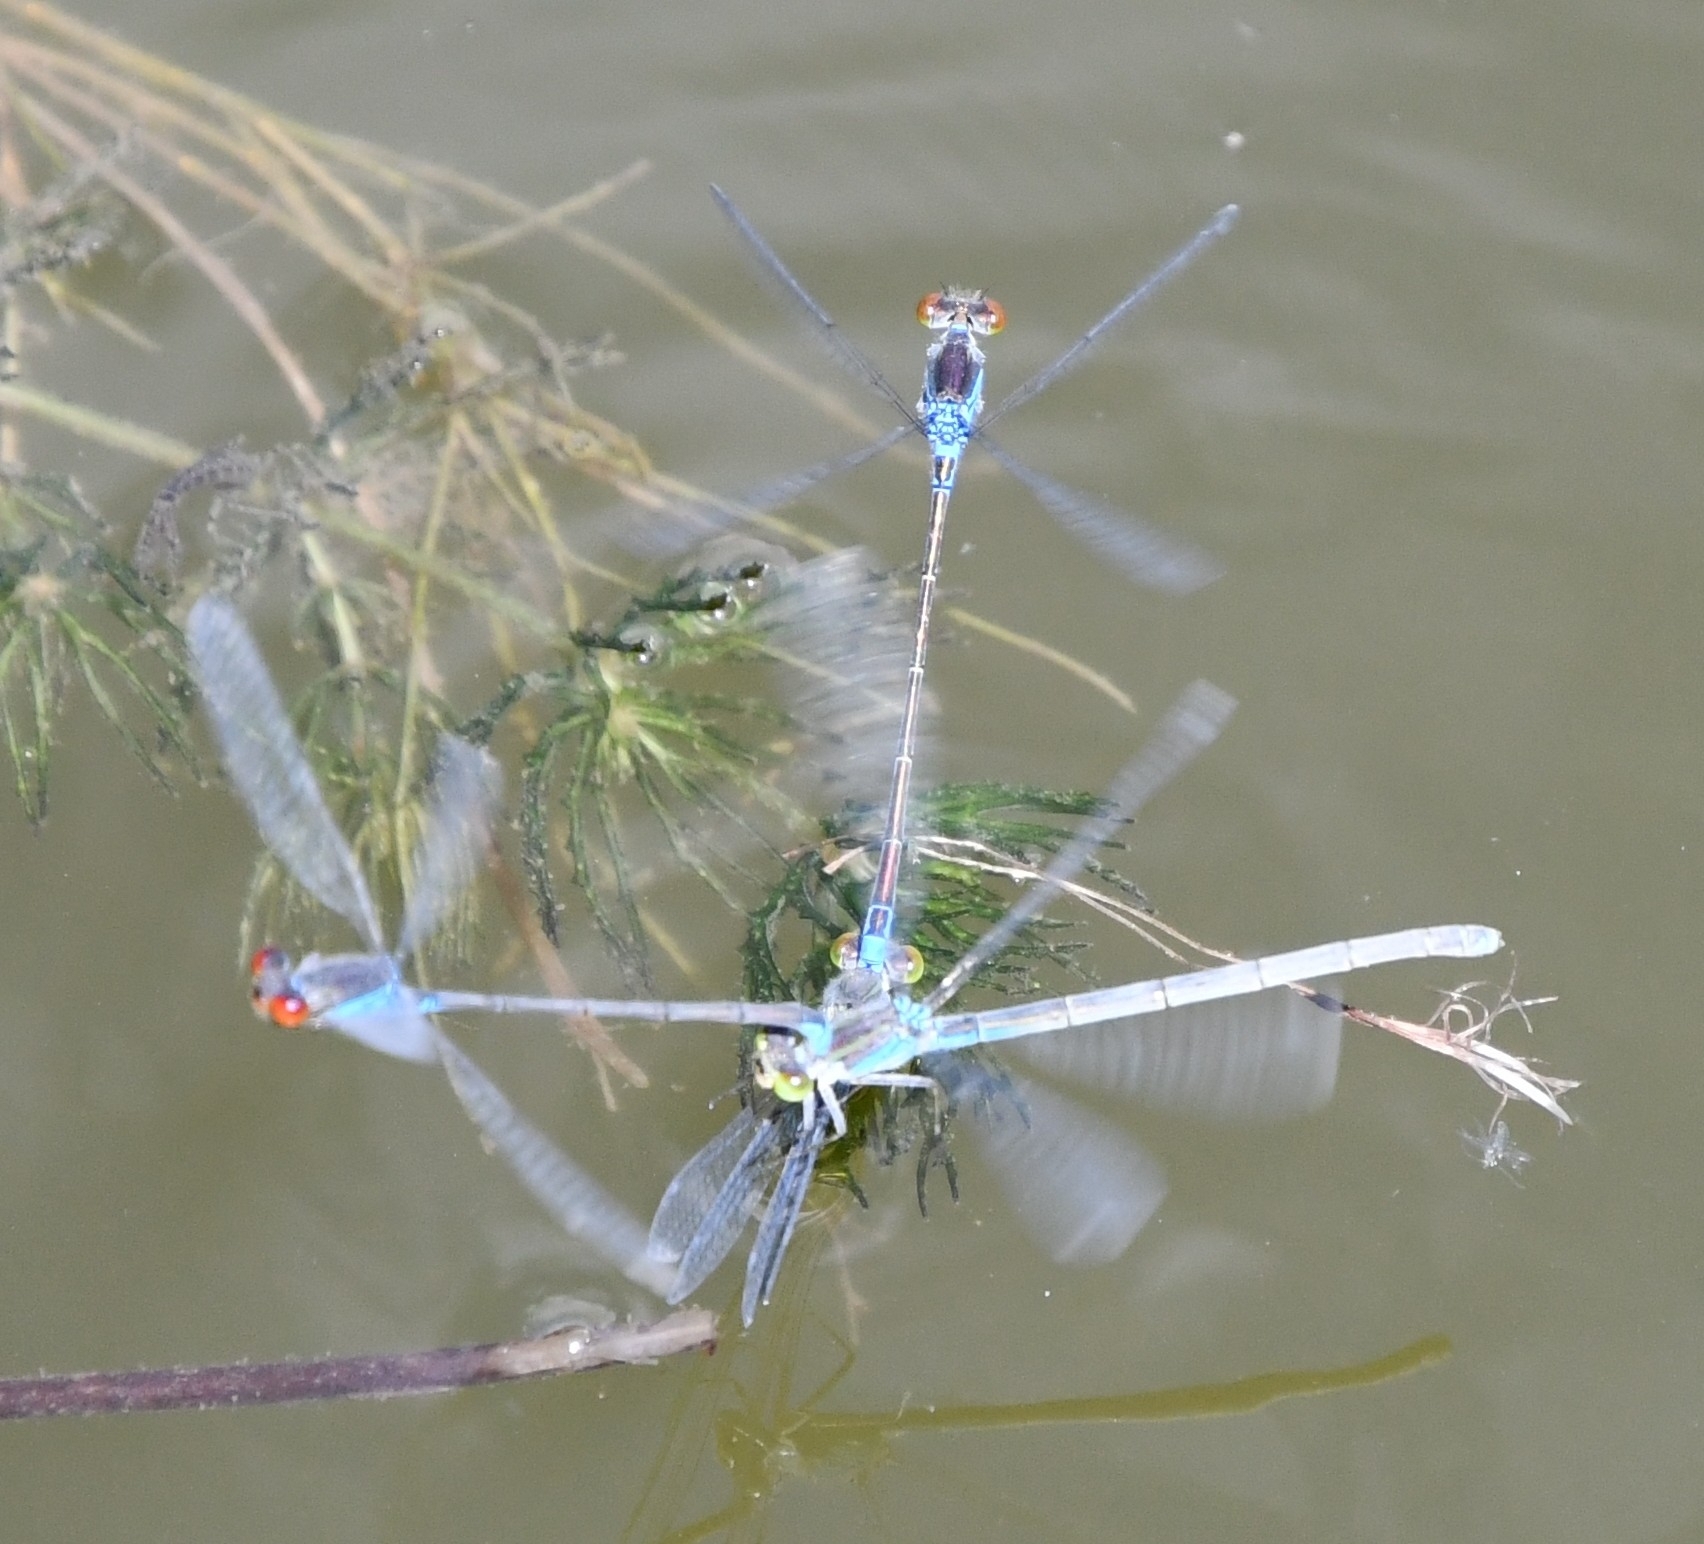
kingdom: Animalia
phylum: Arthropoda
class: Insecta
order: Odonata
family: Coenagrionidae
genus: Erythromma
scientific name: Erythromma viridulum
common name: Small red-eyed damselfly
